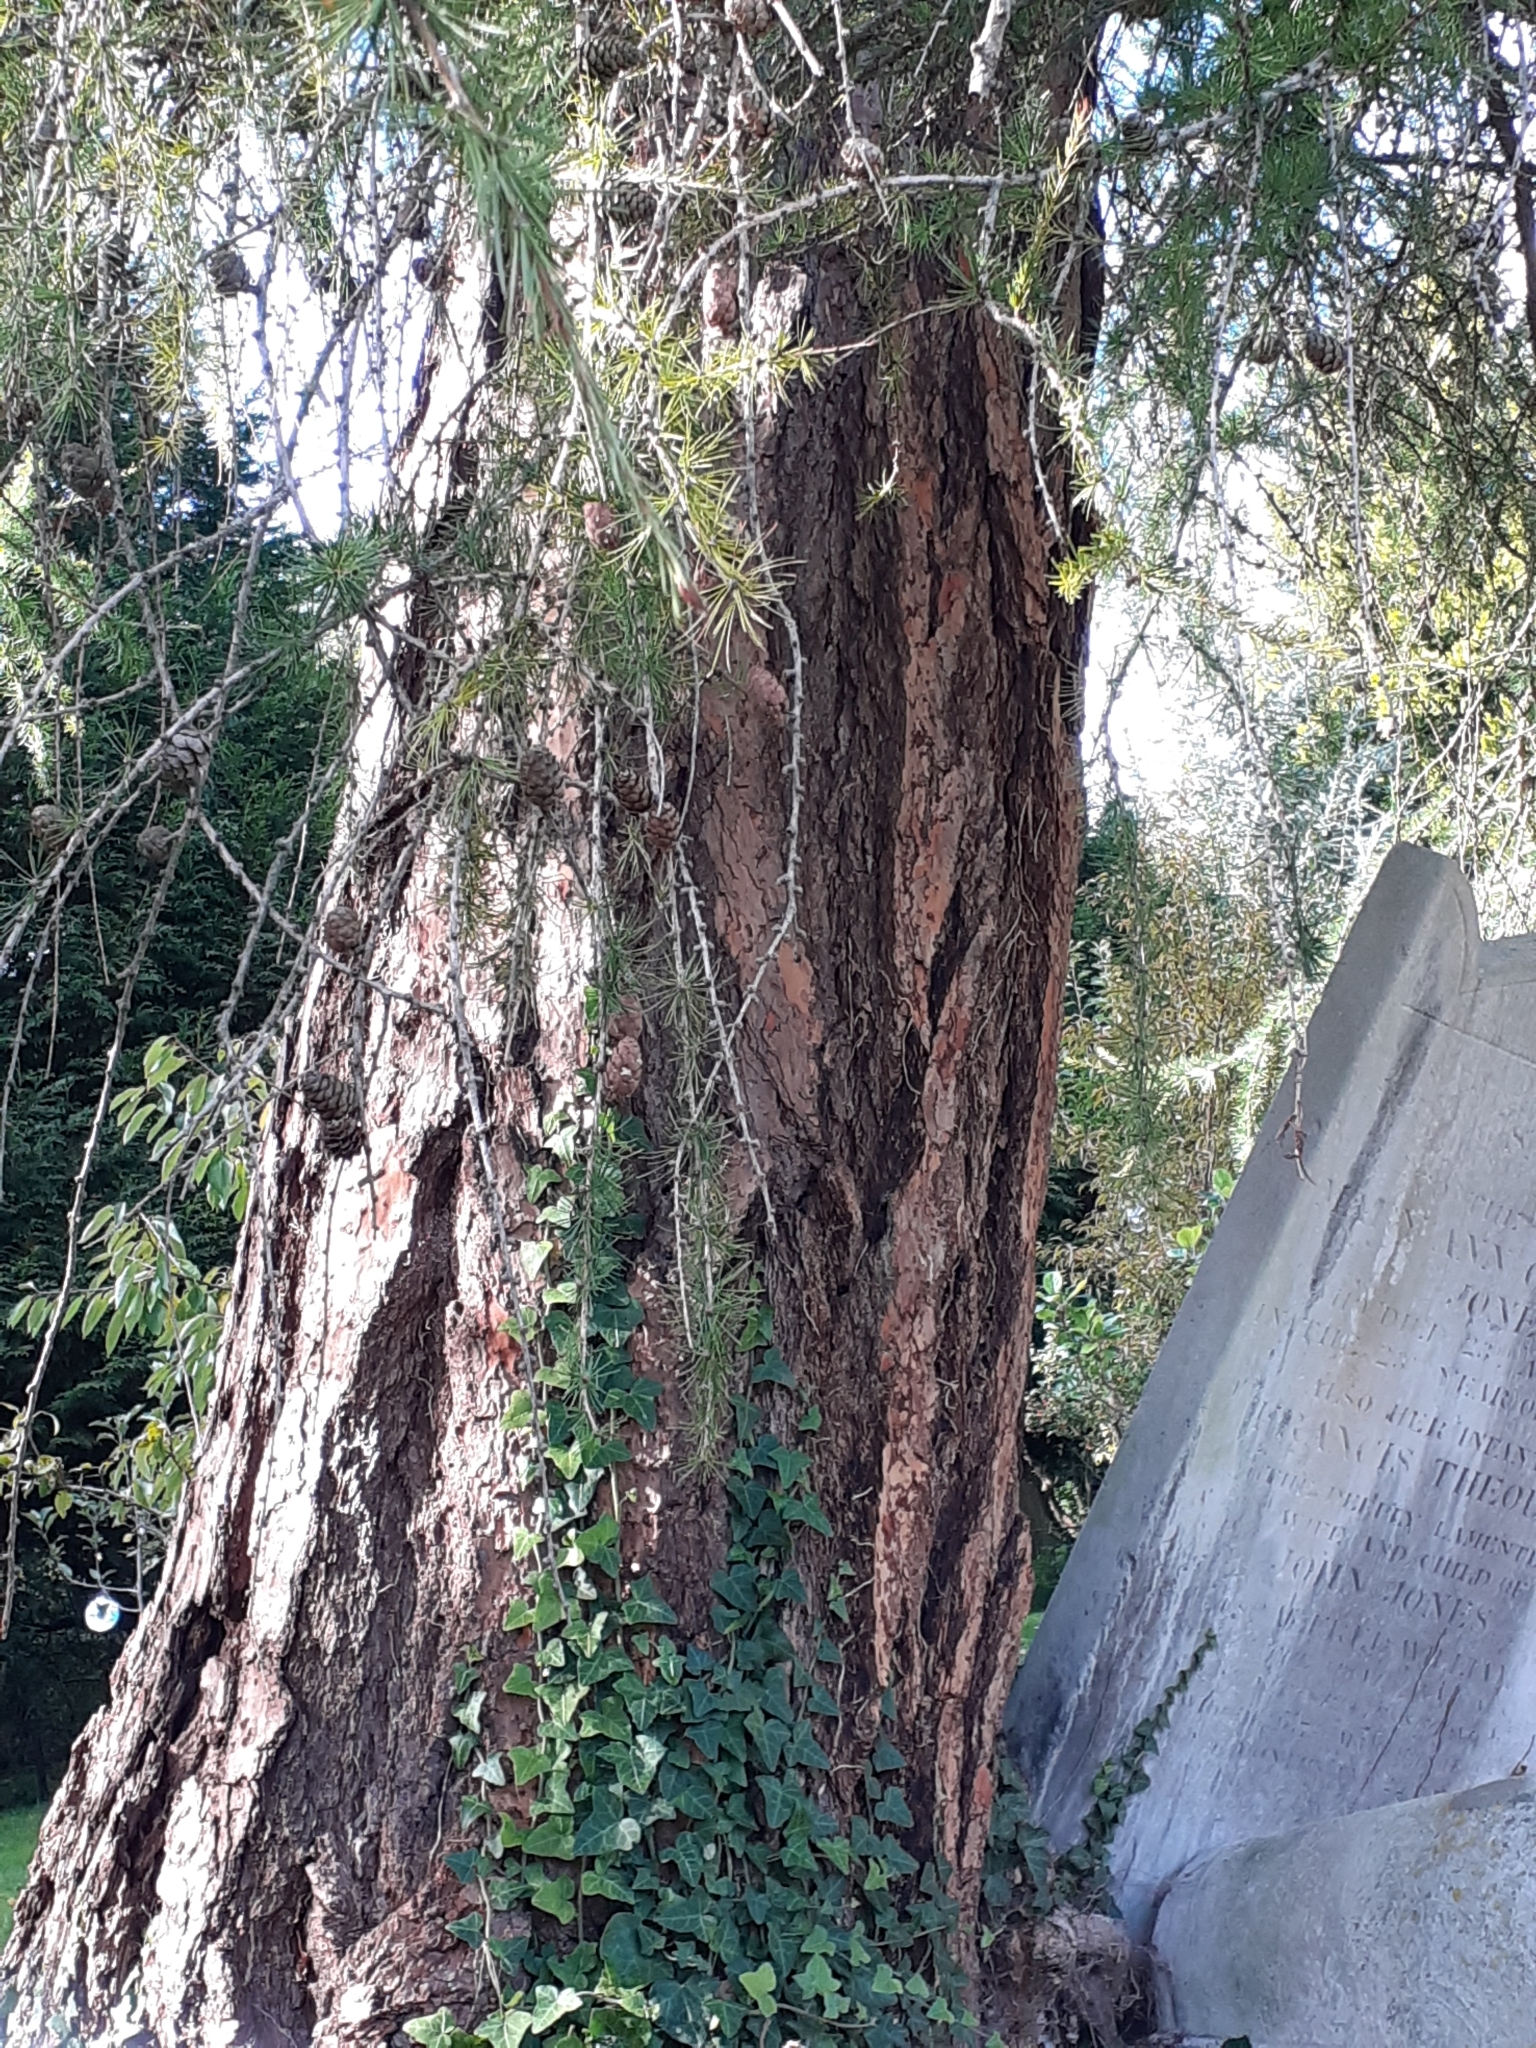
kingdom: Plantae
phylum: Tracheophyta
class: Pinopsida
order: Pinales
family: Pinaceae
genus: Larix
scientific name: Larix decidua
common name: European larch
